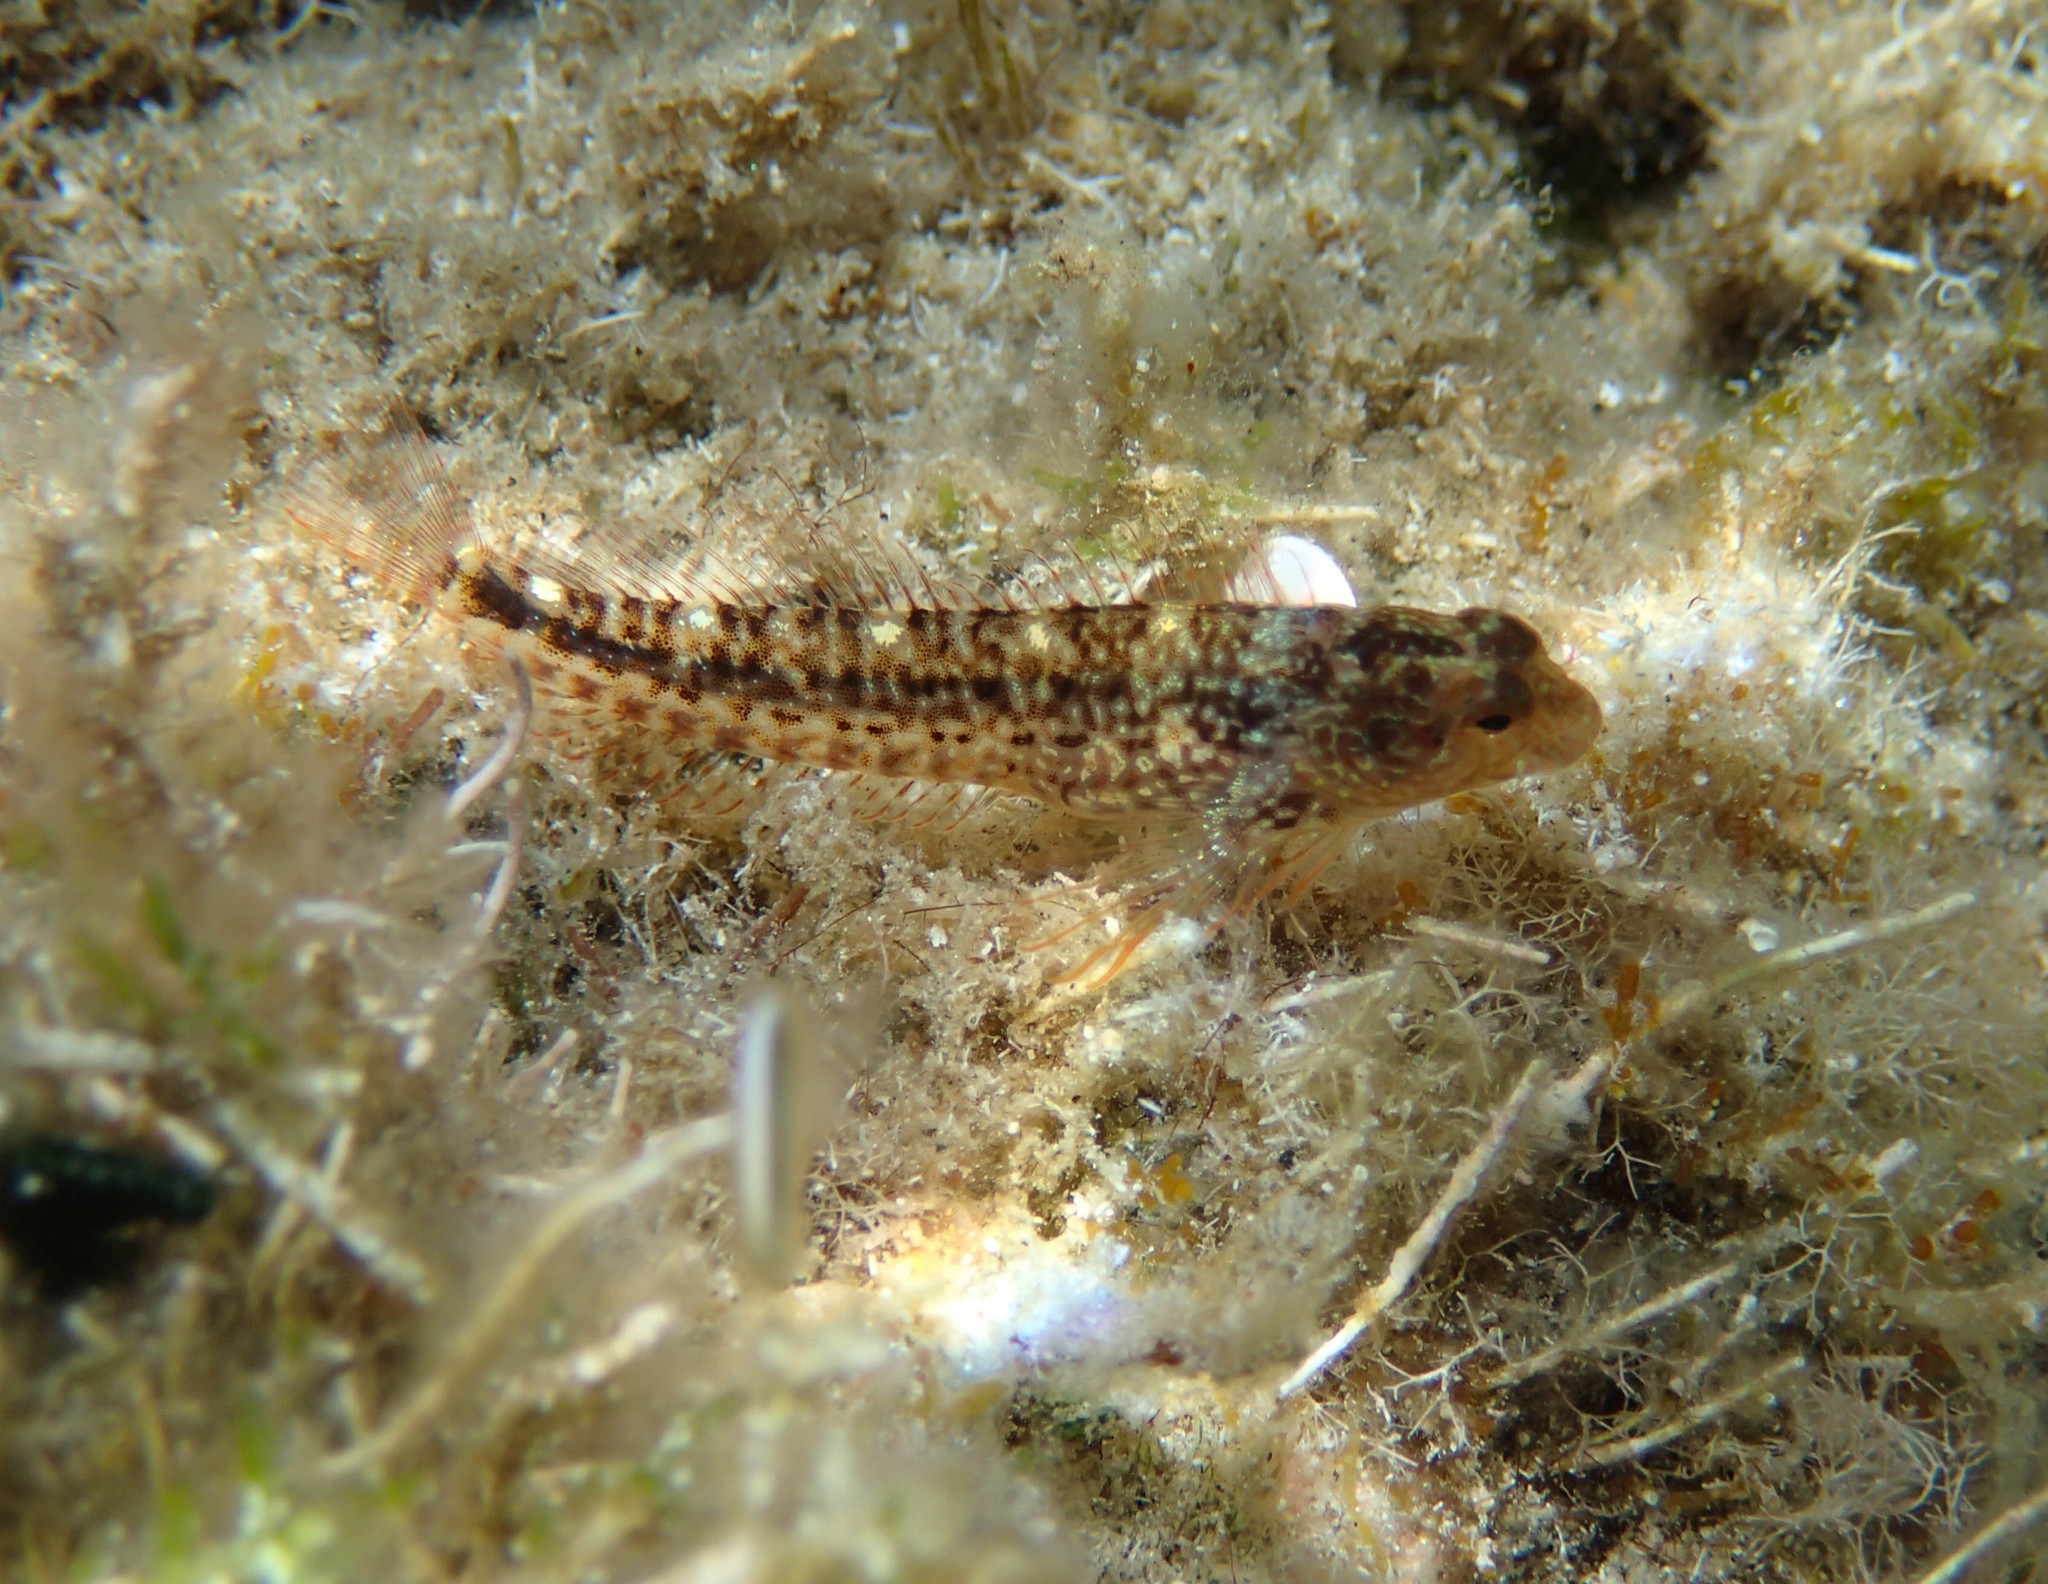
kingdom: Animalia
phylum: Chordata
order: Perciformes
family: Blenniidae
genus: Parablennius
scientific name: Parablennius zvonimiri
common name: Red blenny
